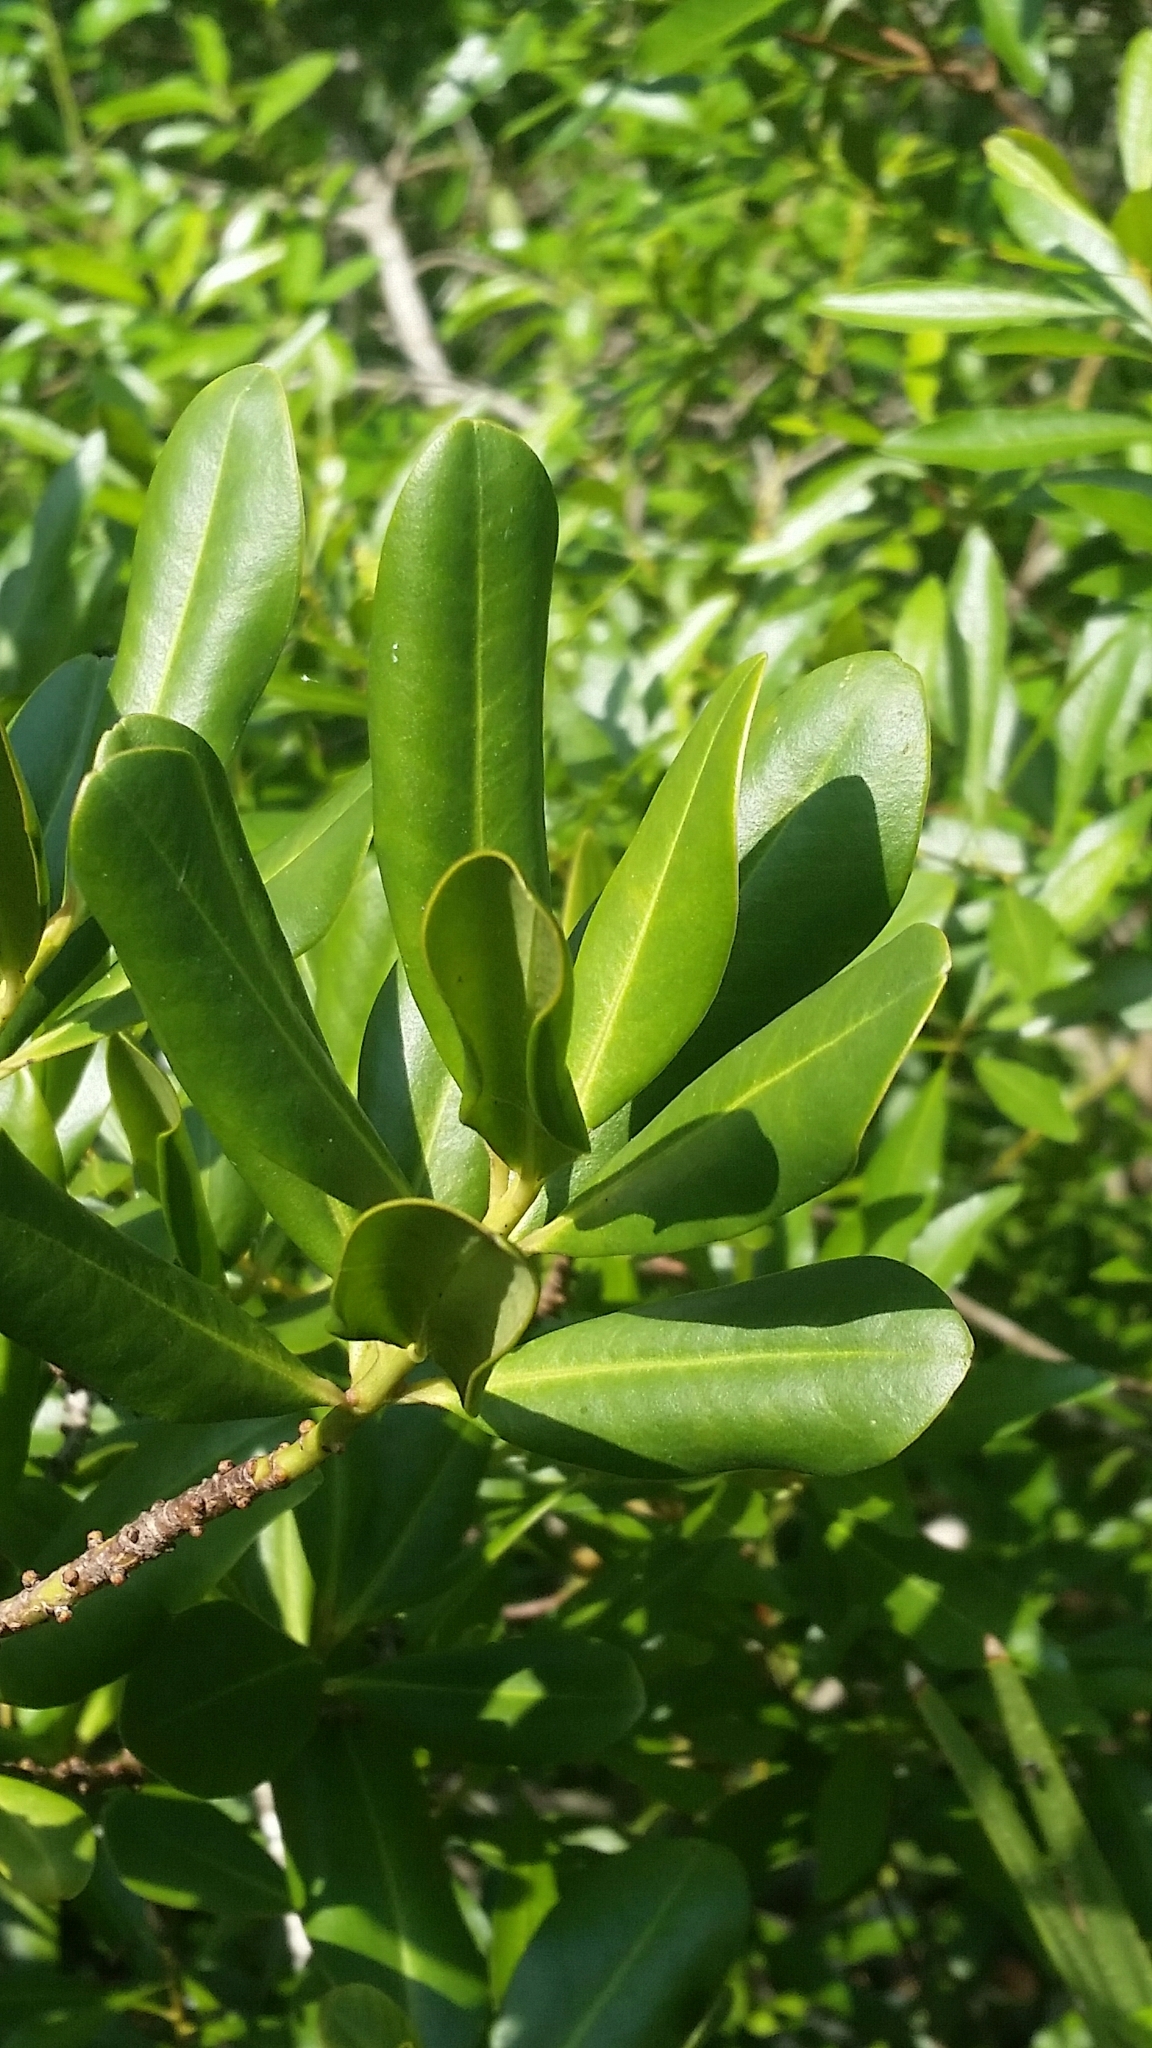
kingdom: Plantae
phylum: Tracheophyta
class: Magnoliopsida
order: Ericales
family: Primulaceae
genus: Myrsine
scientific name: Myrsine floridana
